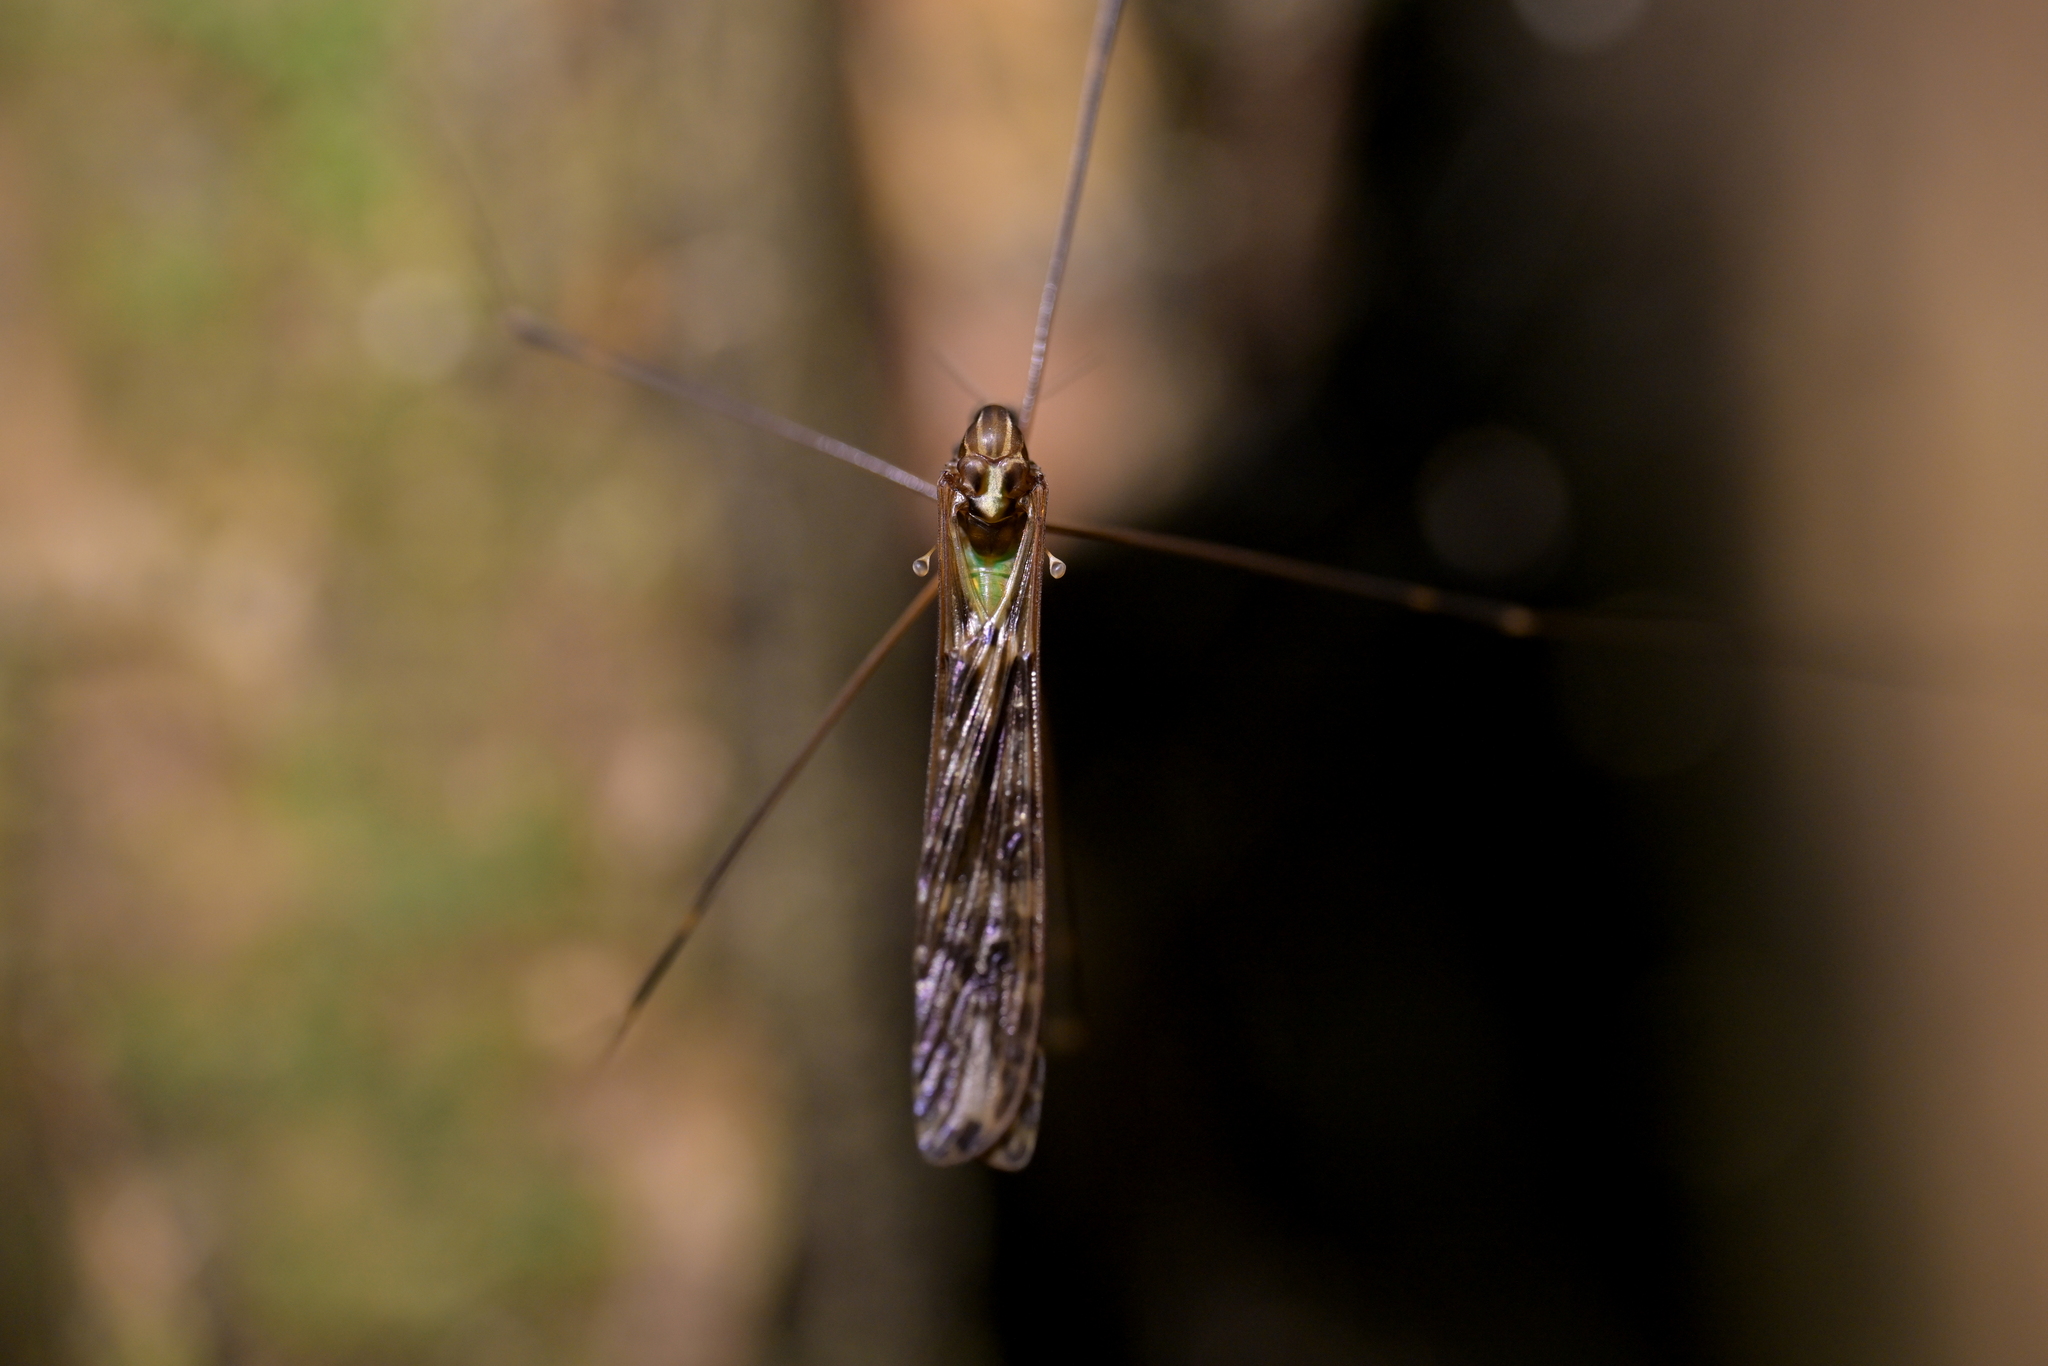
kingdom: Animalia
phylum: Arthropoda
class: Insecta
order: Diptera
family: Limoniidae
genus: Discobola
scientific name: Discobola dohrni
